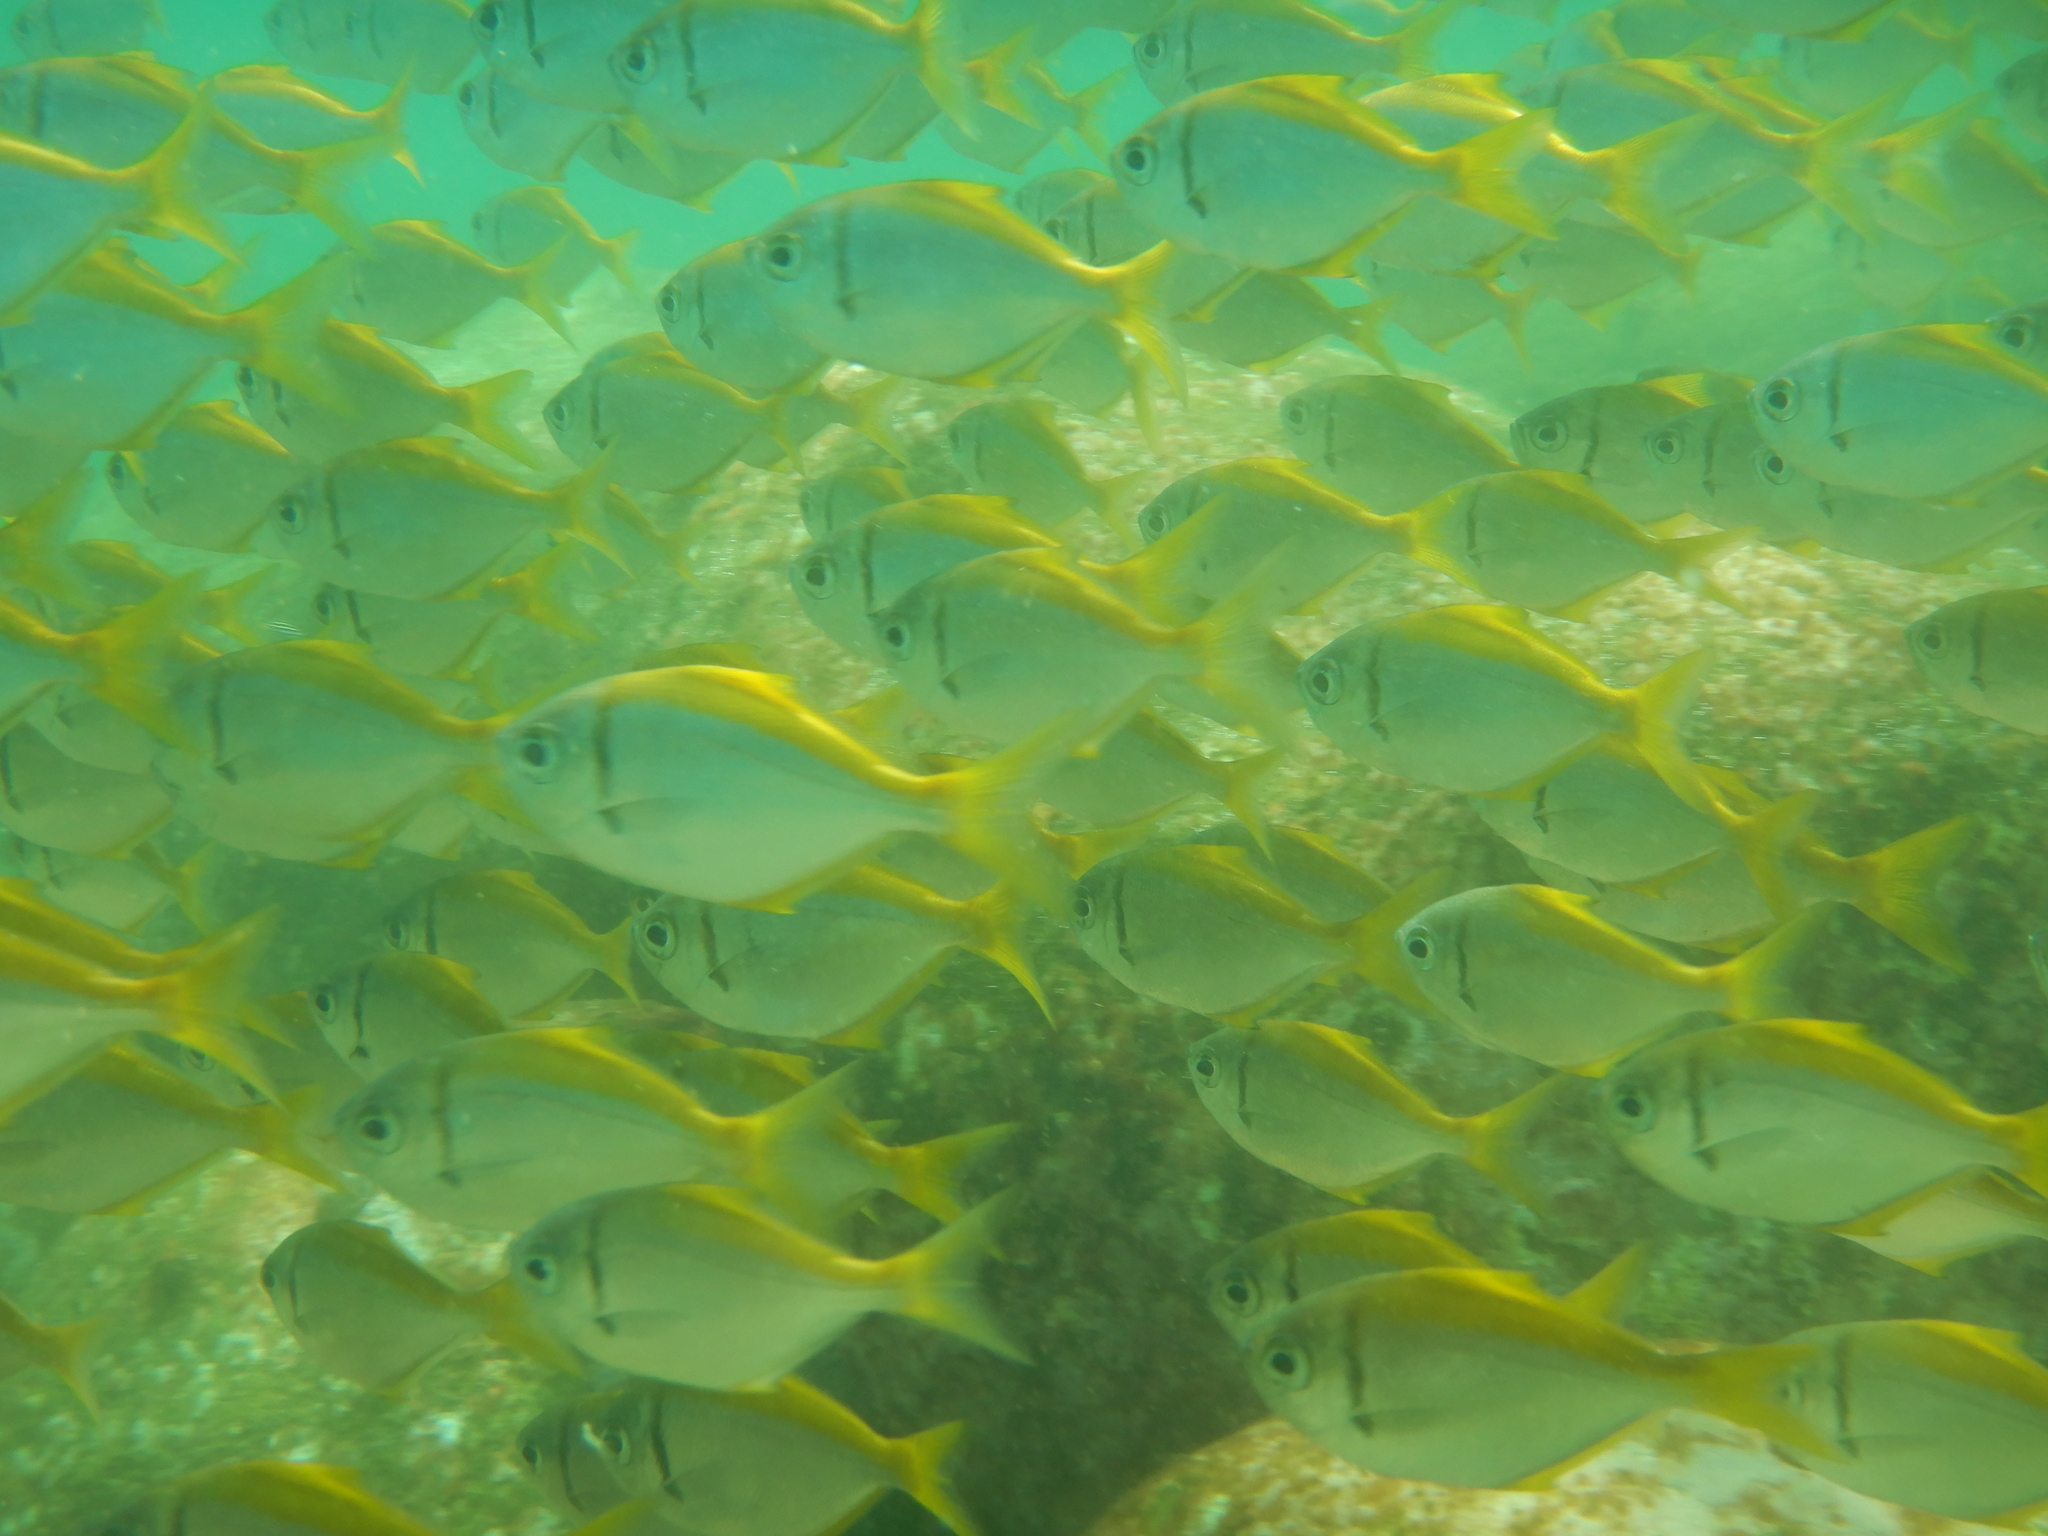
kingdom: Animalia
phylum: Chordata
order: Perciformes
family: Monodactylidae
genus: Schuettea
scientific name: Schuettea scalaripinnis
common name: Eastern pomfred
